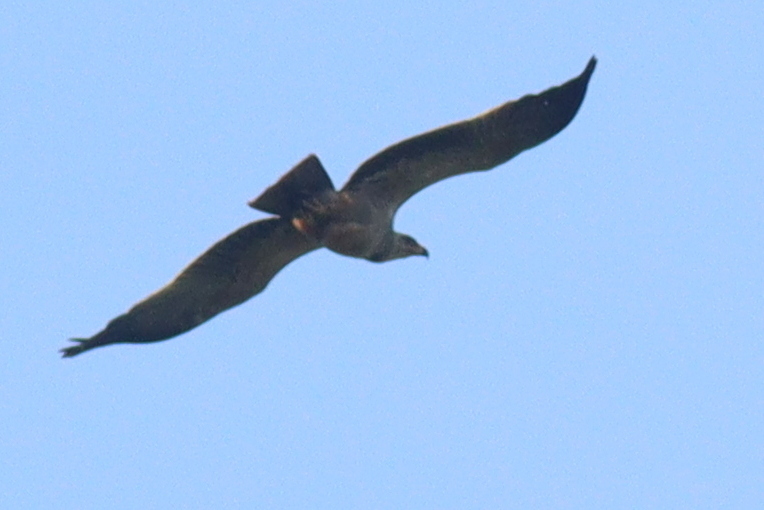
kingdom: Animalia
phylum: Chordata
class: Aves
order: Accipitriformes
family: Accipitridae
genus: Aquila
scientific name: Aquila rapax
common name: Tawny eagle
